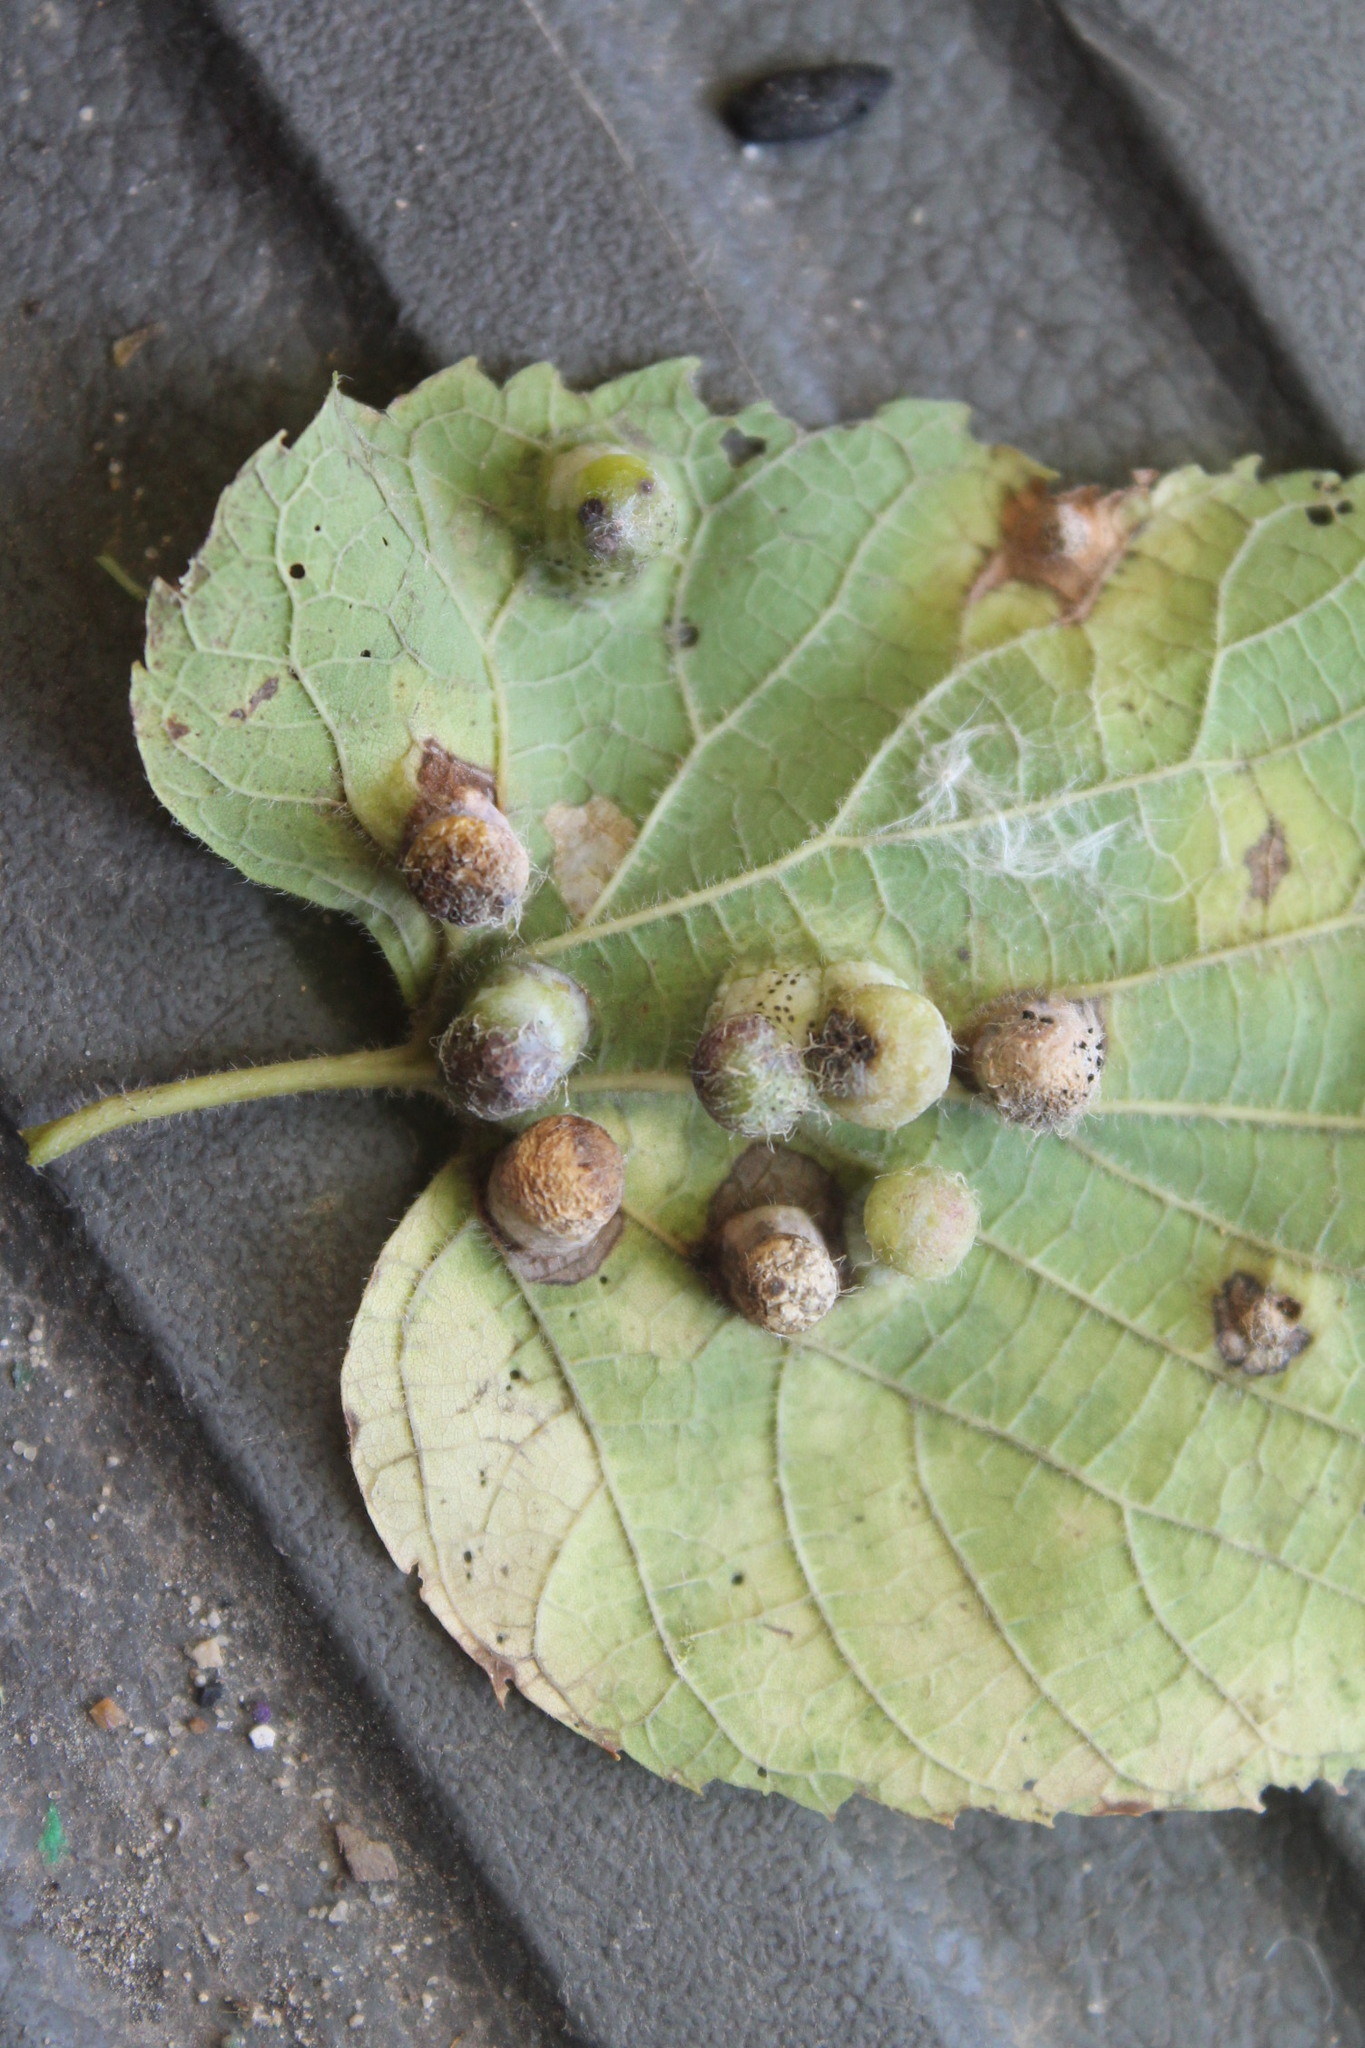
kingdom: Animalia
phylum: Arthropoda
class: Insecta
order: Hemiptera
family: Aphalaridae
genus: Pachypsylla
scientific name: Pachypsylla celtidismamma
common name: Hackberry nipplegall psyllid
